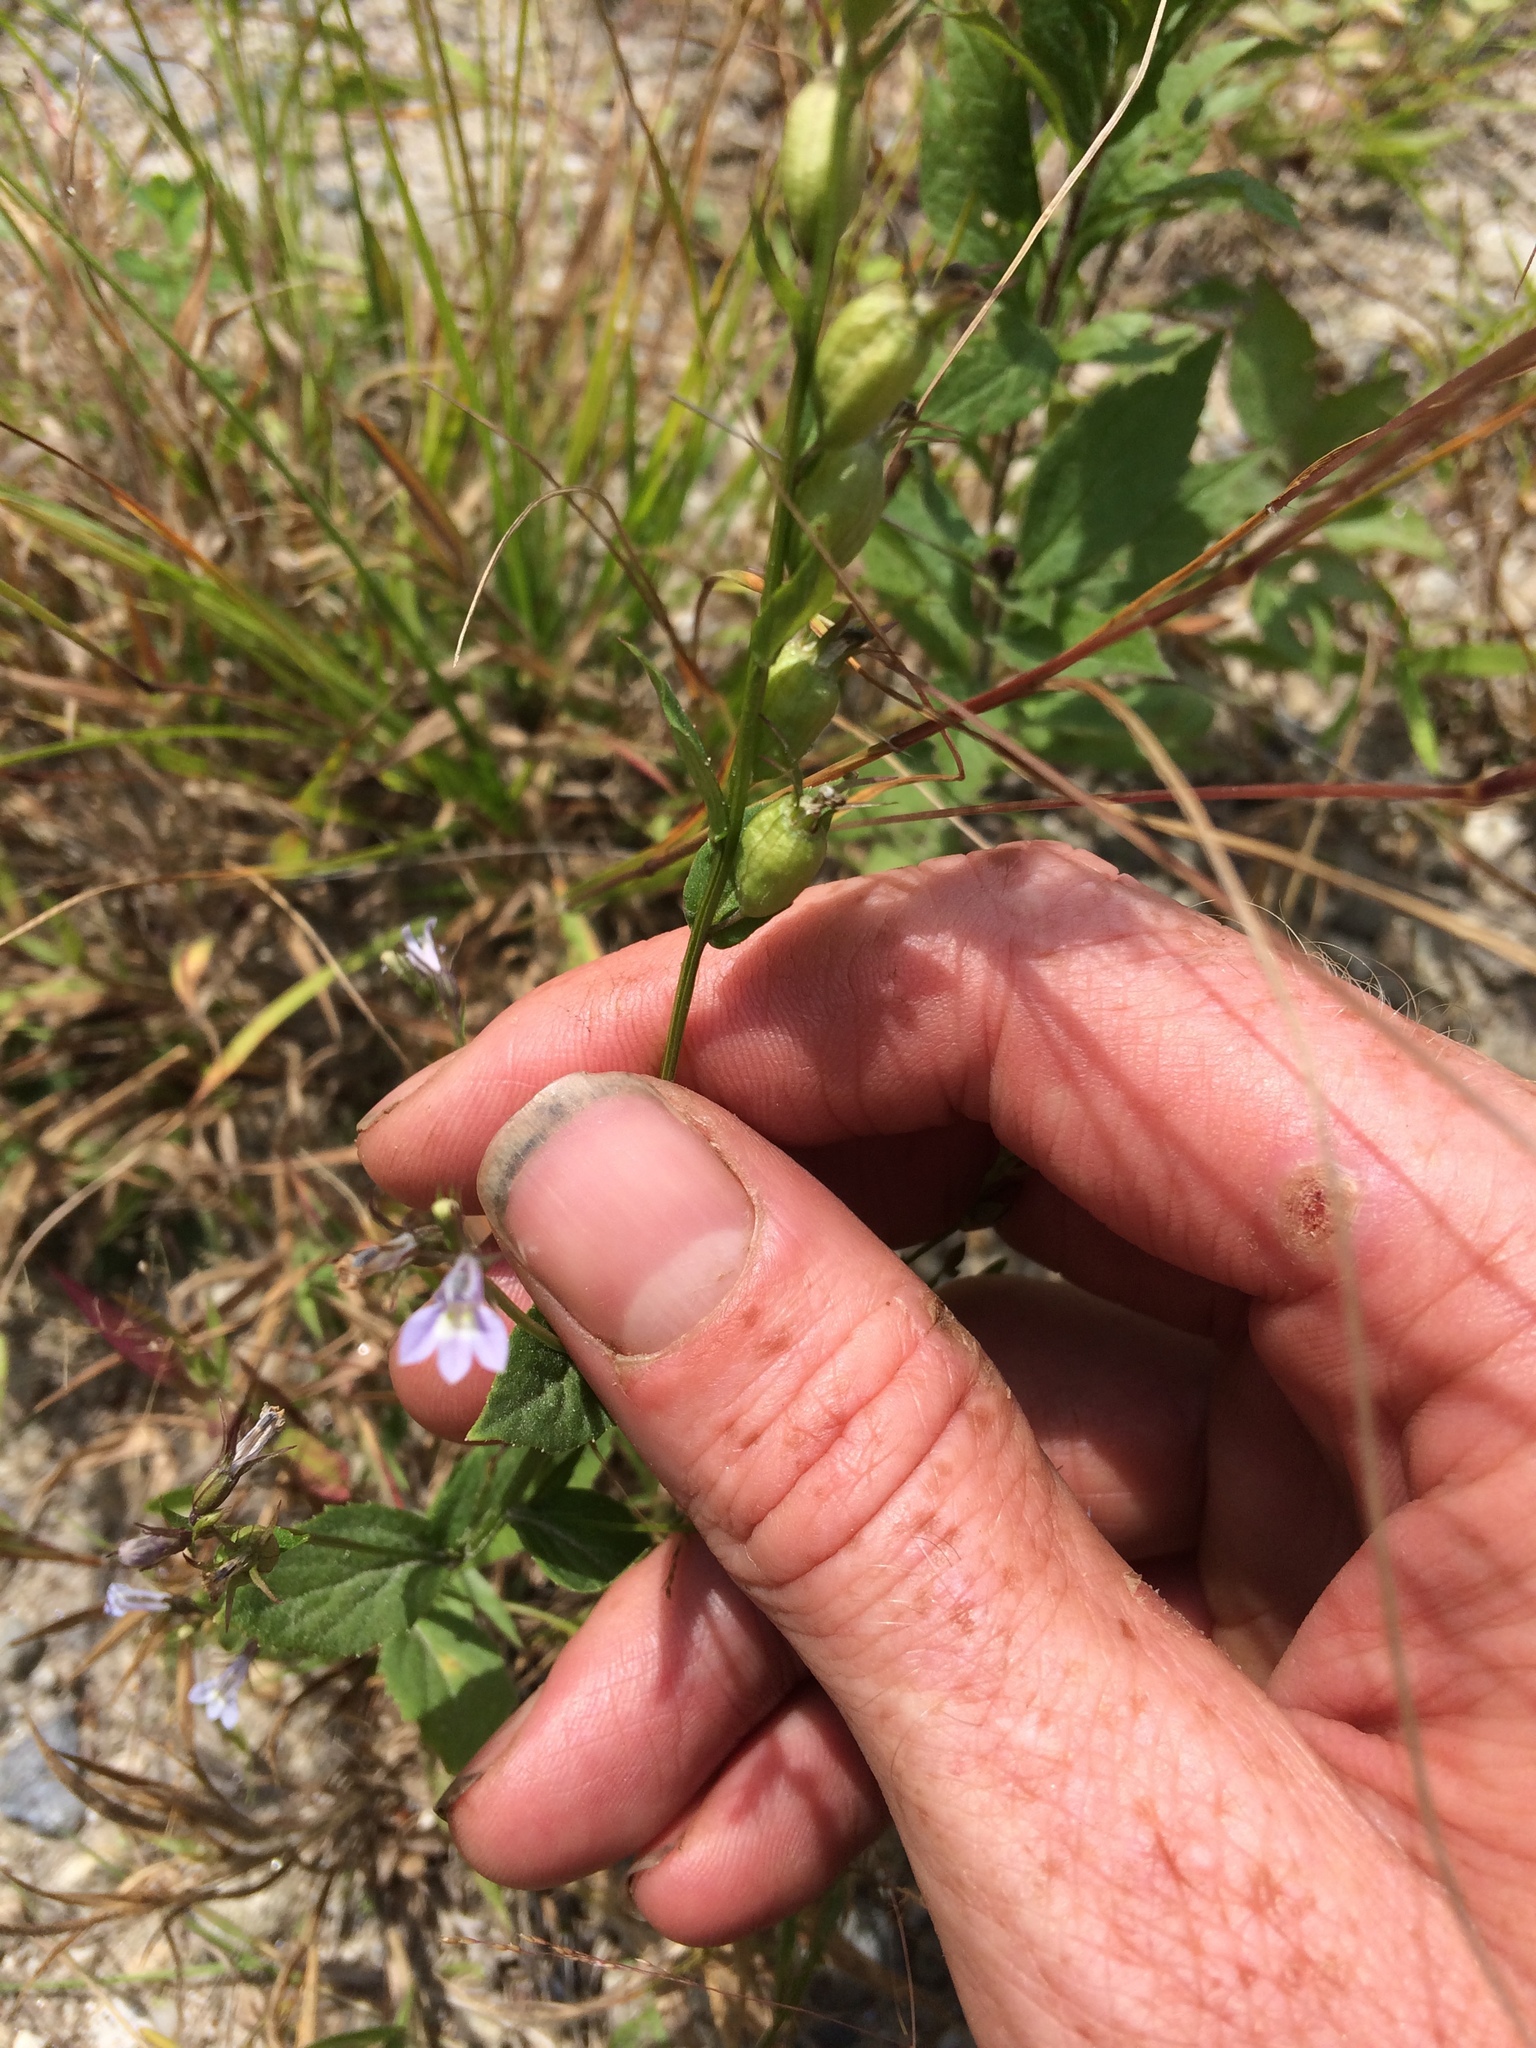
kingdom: Plantae
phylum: Tracheophyta
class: Magnoliopsida
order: Asterales
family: Campanulaceae
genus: Lobelia
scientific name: Lobelia inflata
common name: Indian tobacco
